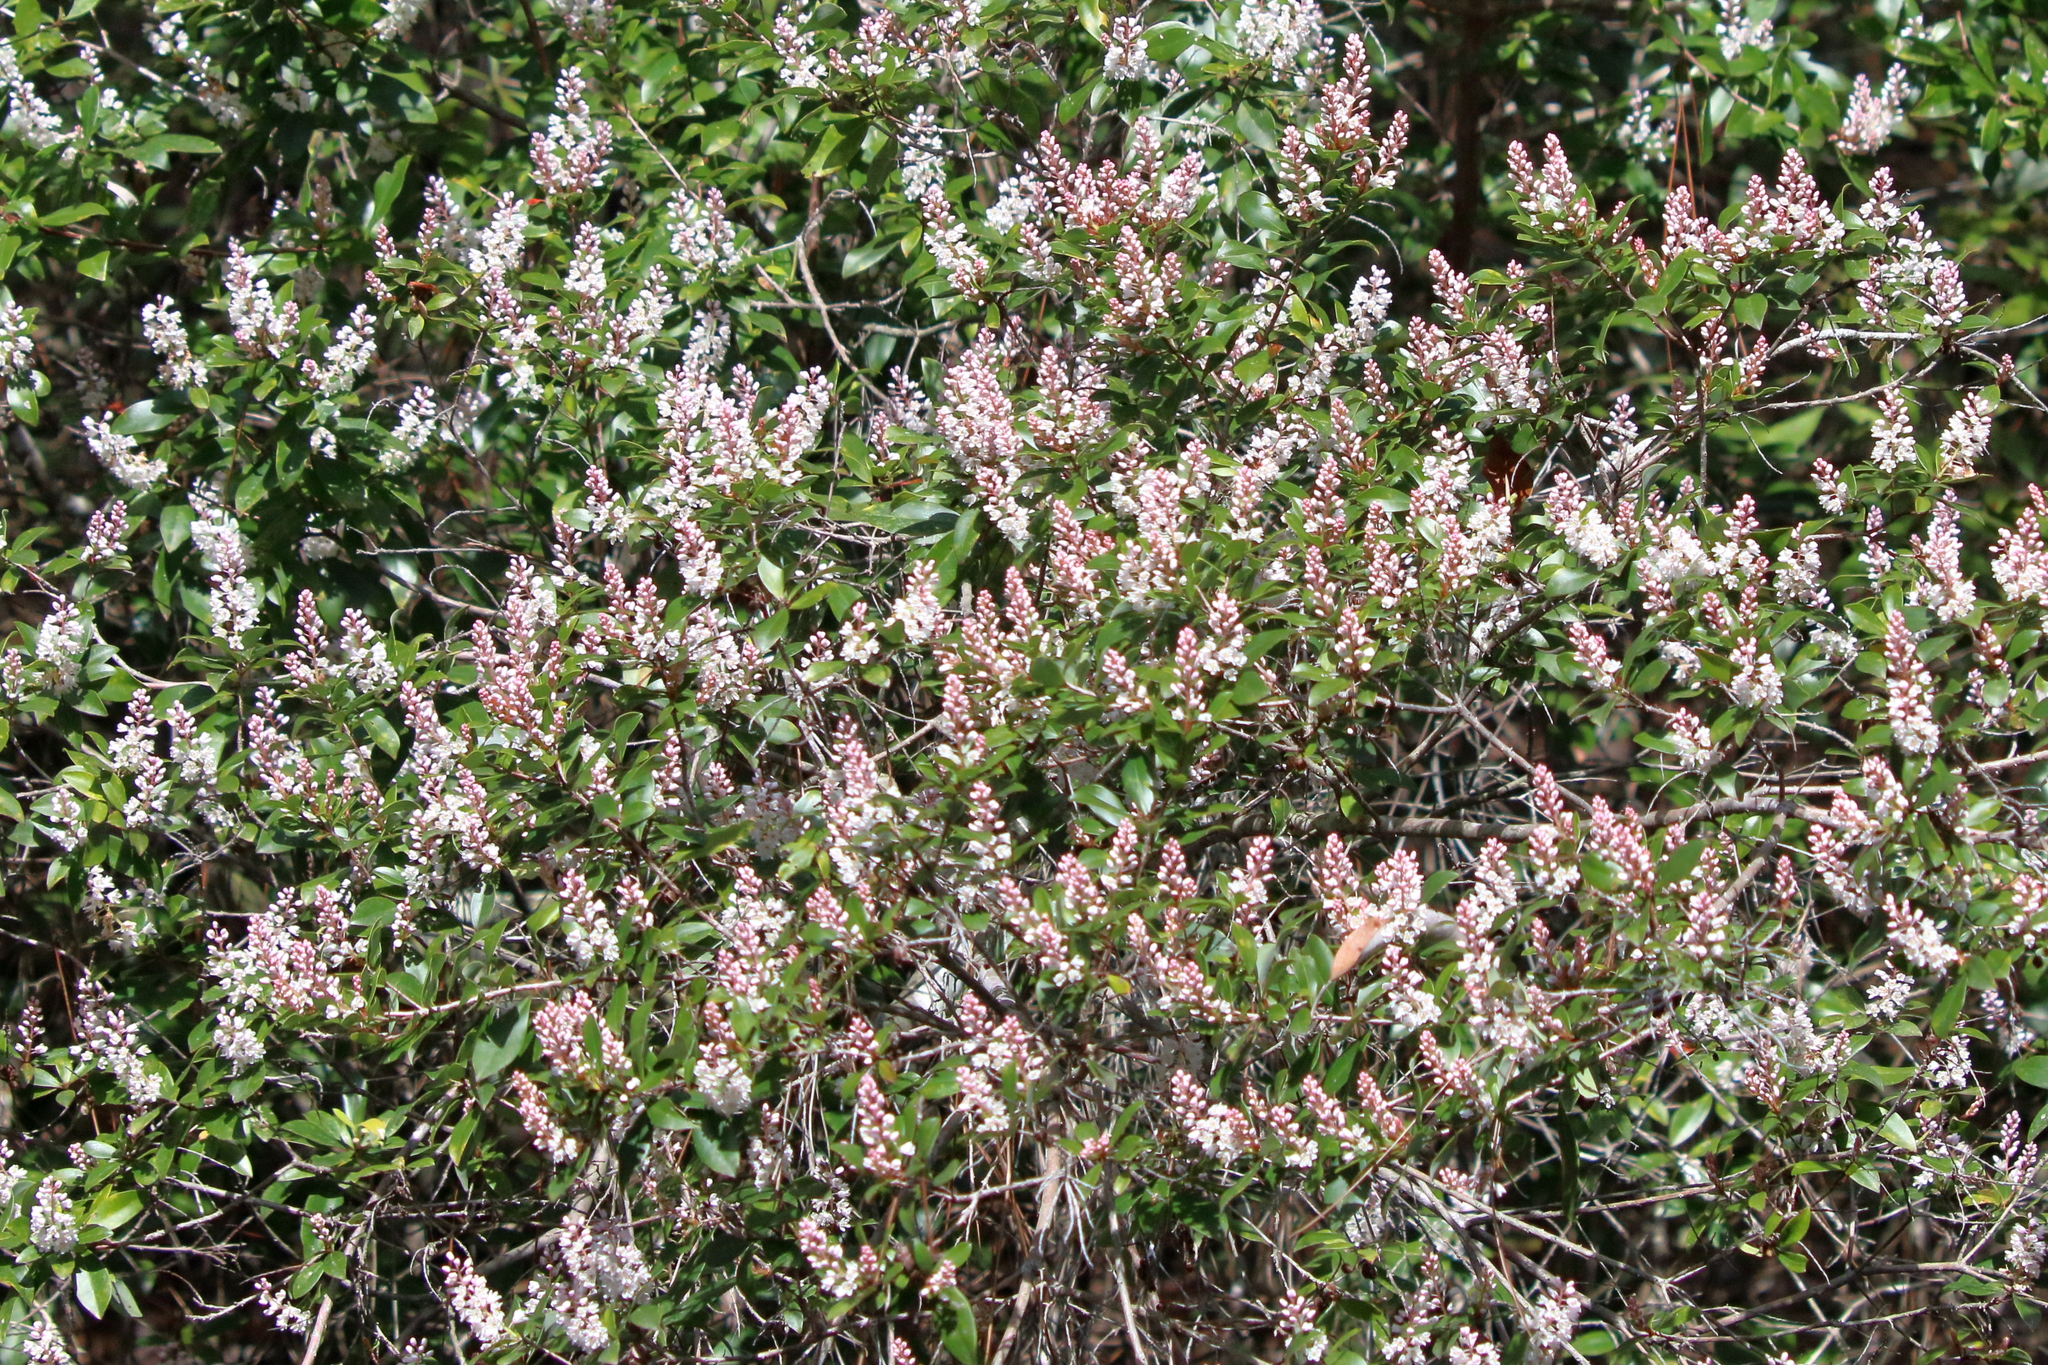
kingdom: Plantae
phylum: Tracheophyta
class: Magnoliopsida
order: Ericales
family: Cyrillaceae
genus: Cliftonia
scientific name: Cliftonia monophylla
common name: Titi
